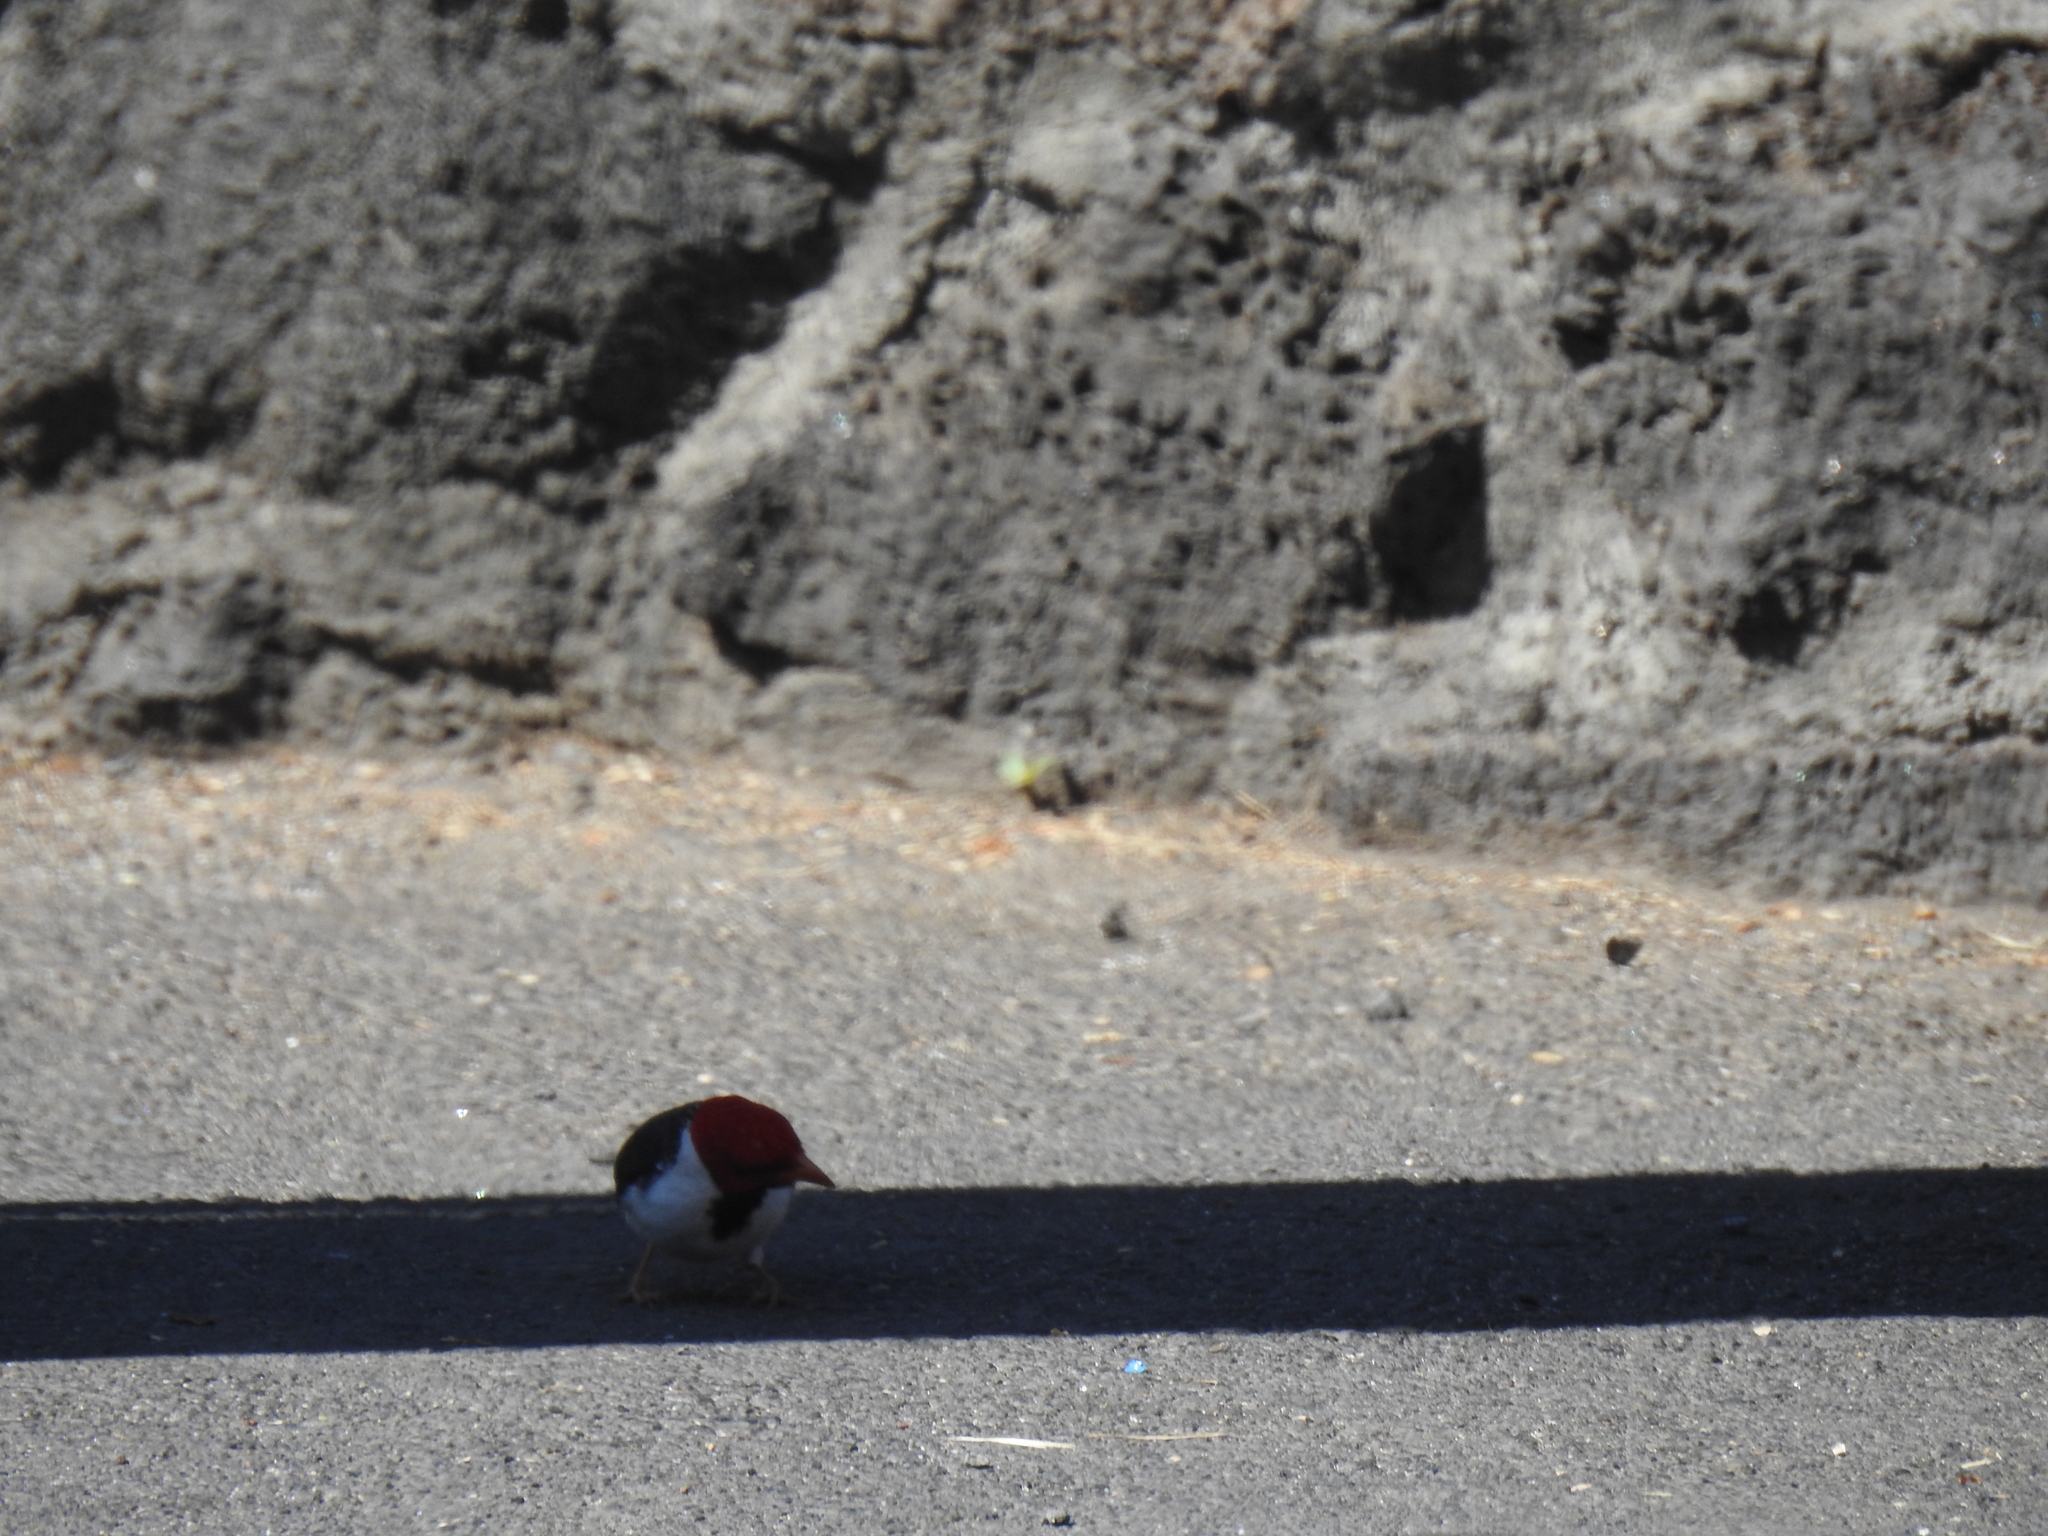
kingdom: Animalia
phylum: Chordata
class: Aves
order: Passeriformes
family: Thraupidae
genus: Paroaria
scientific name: Paroaria capitata
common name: Yellow-billed cardinal
